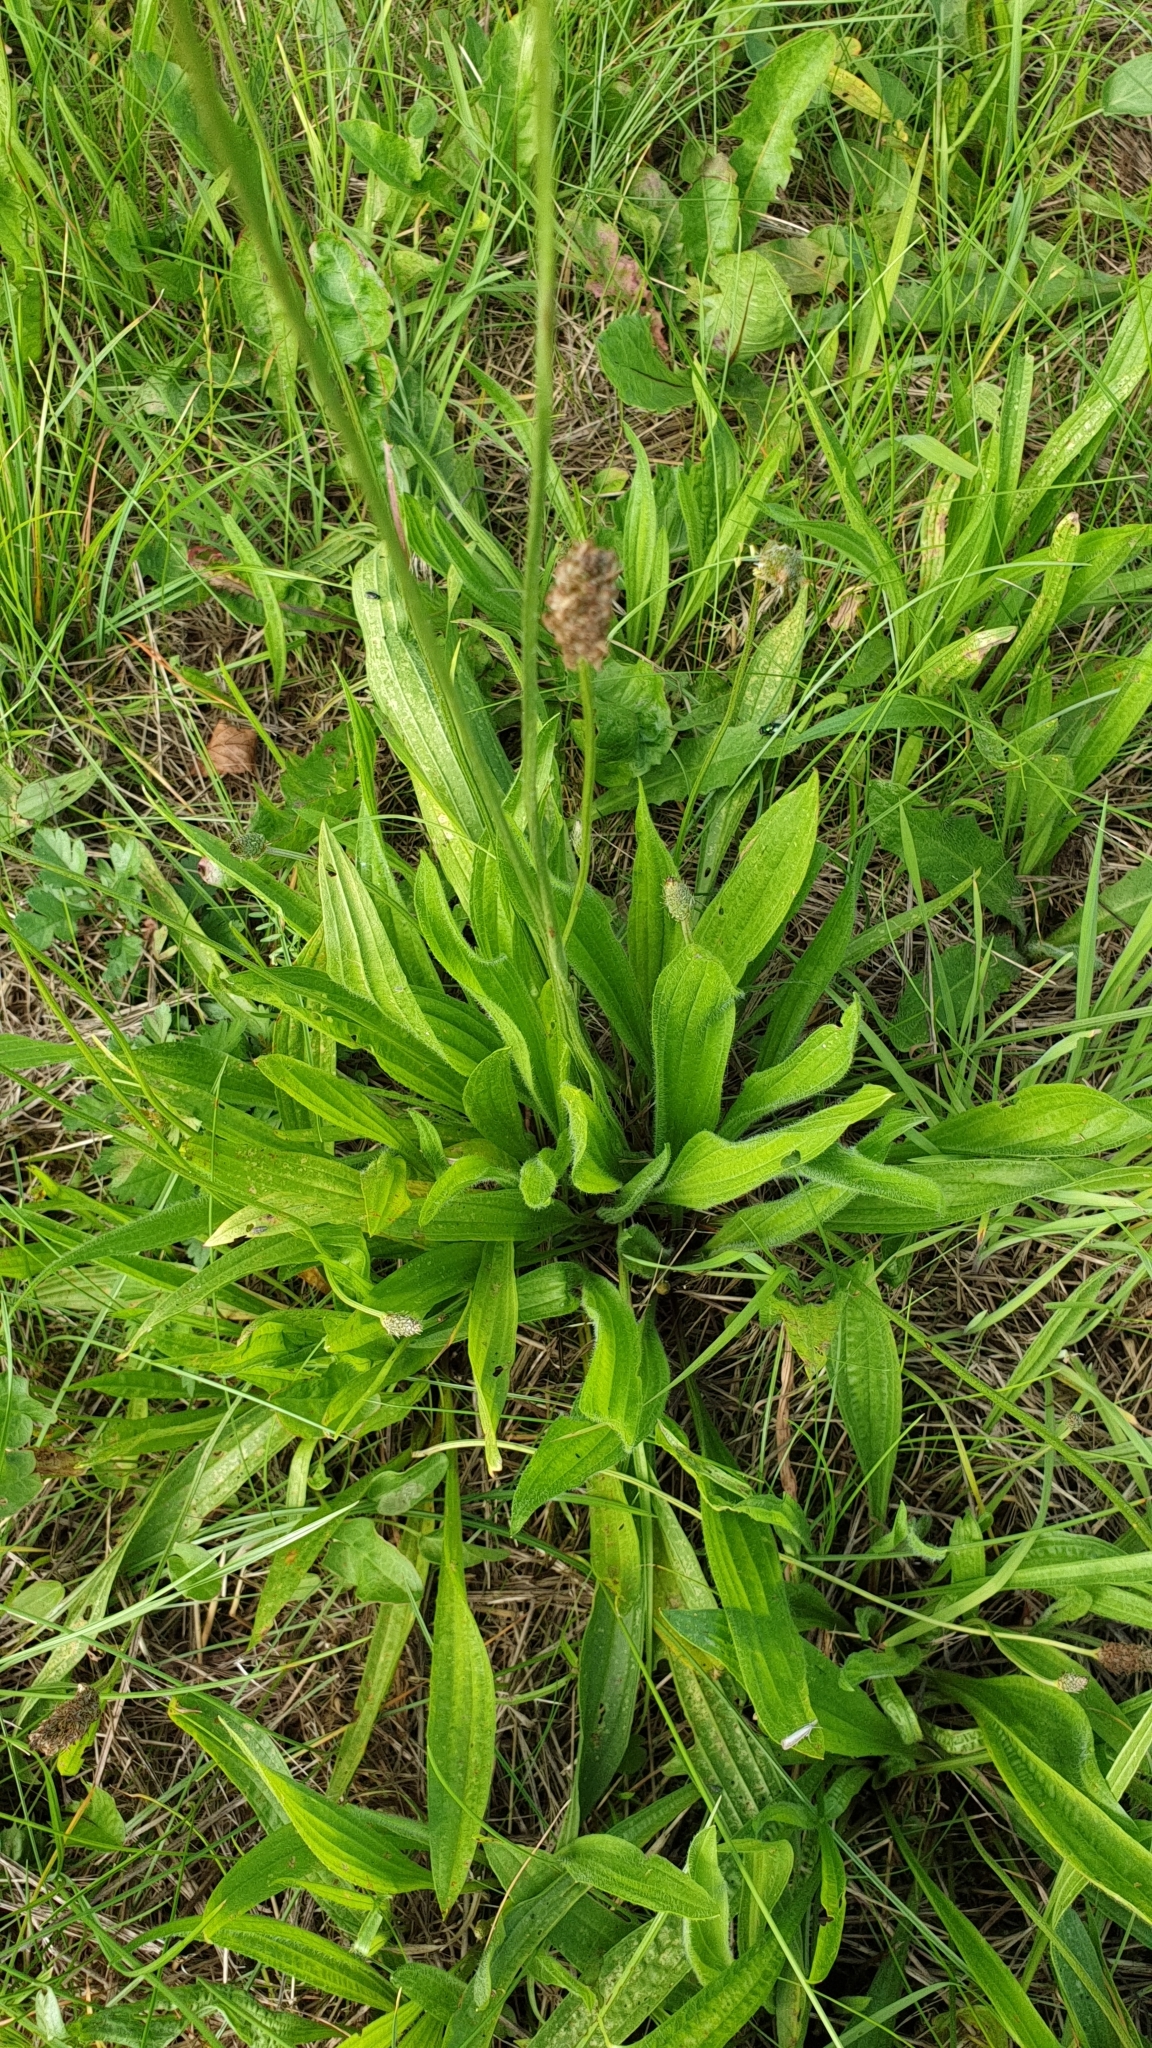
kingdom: Plantae
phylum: Tracheophyta
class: Magnoliopsida
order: Lamiales
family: Plantaginaceae
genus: Plantago
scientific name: Plantago lanceolata
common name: Ribwort plantain
